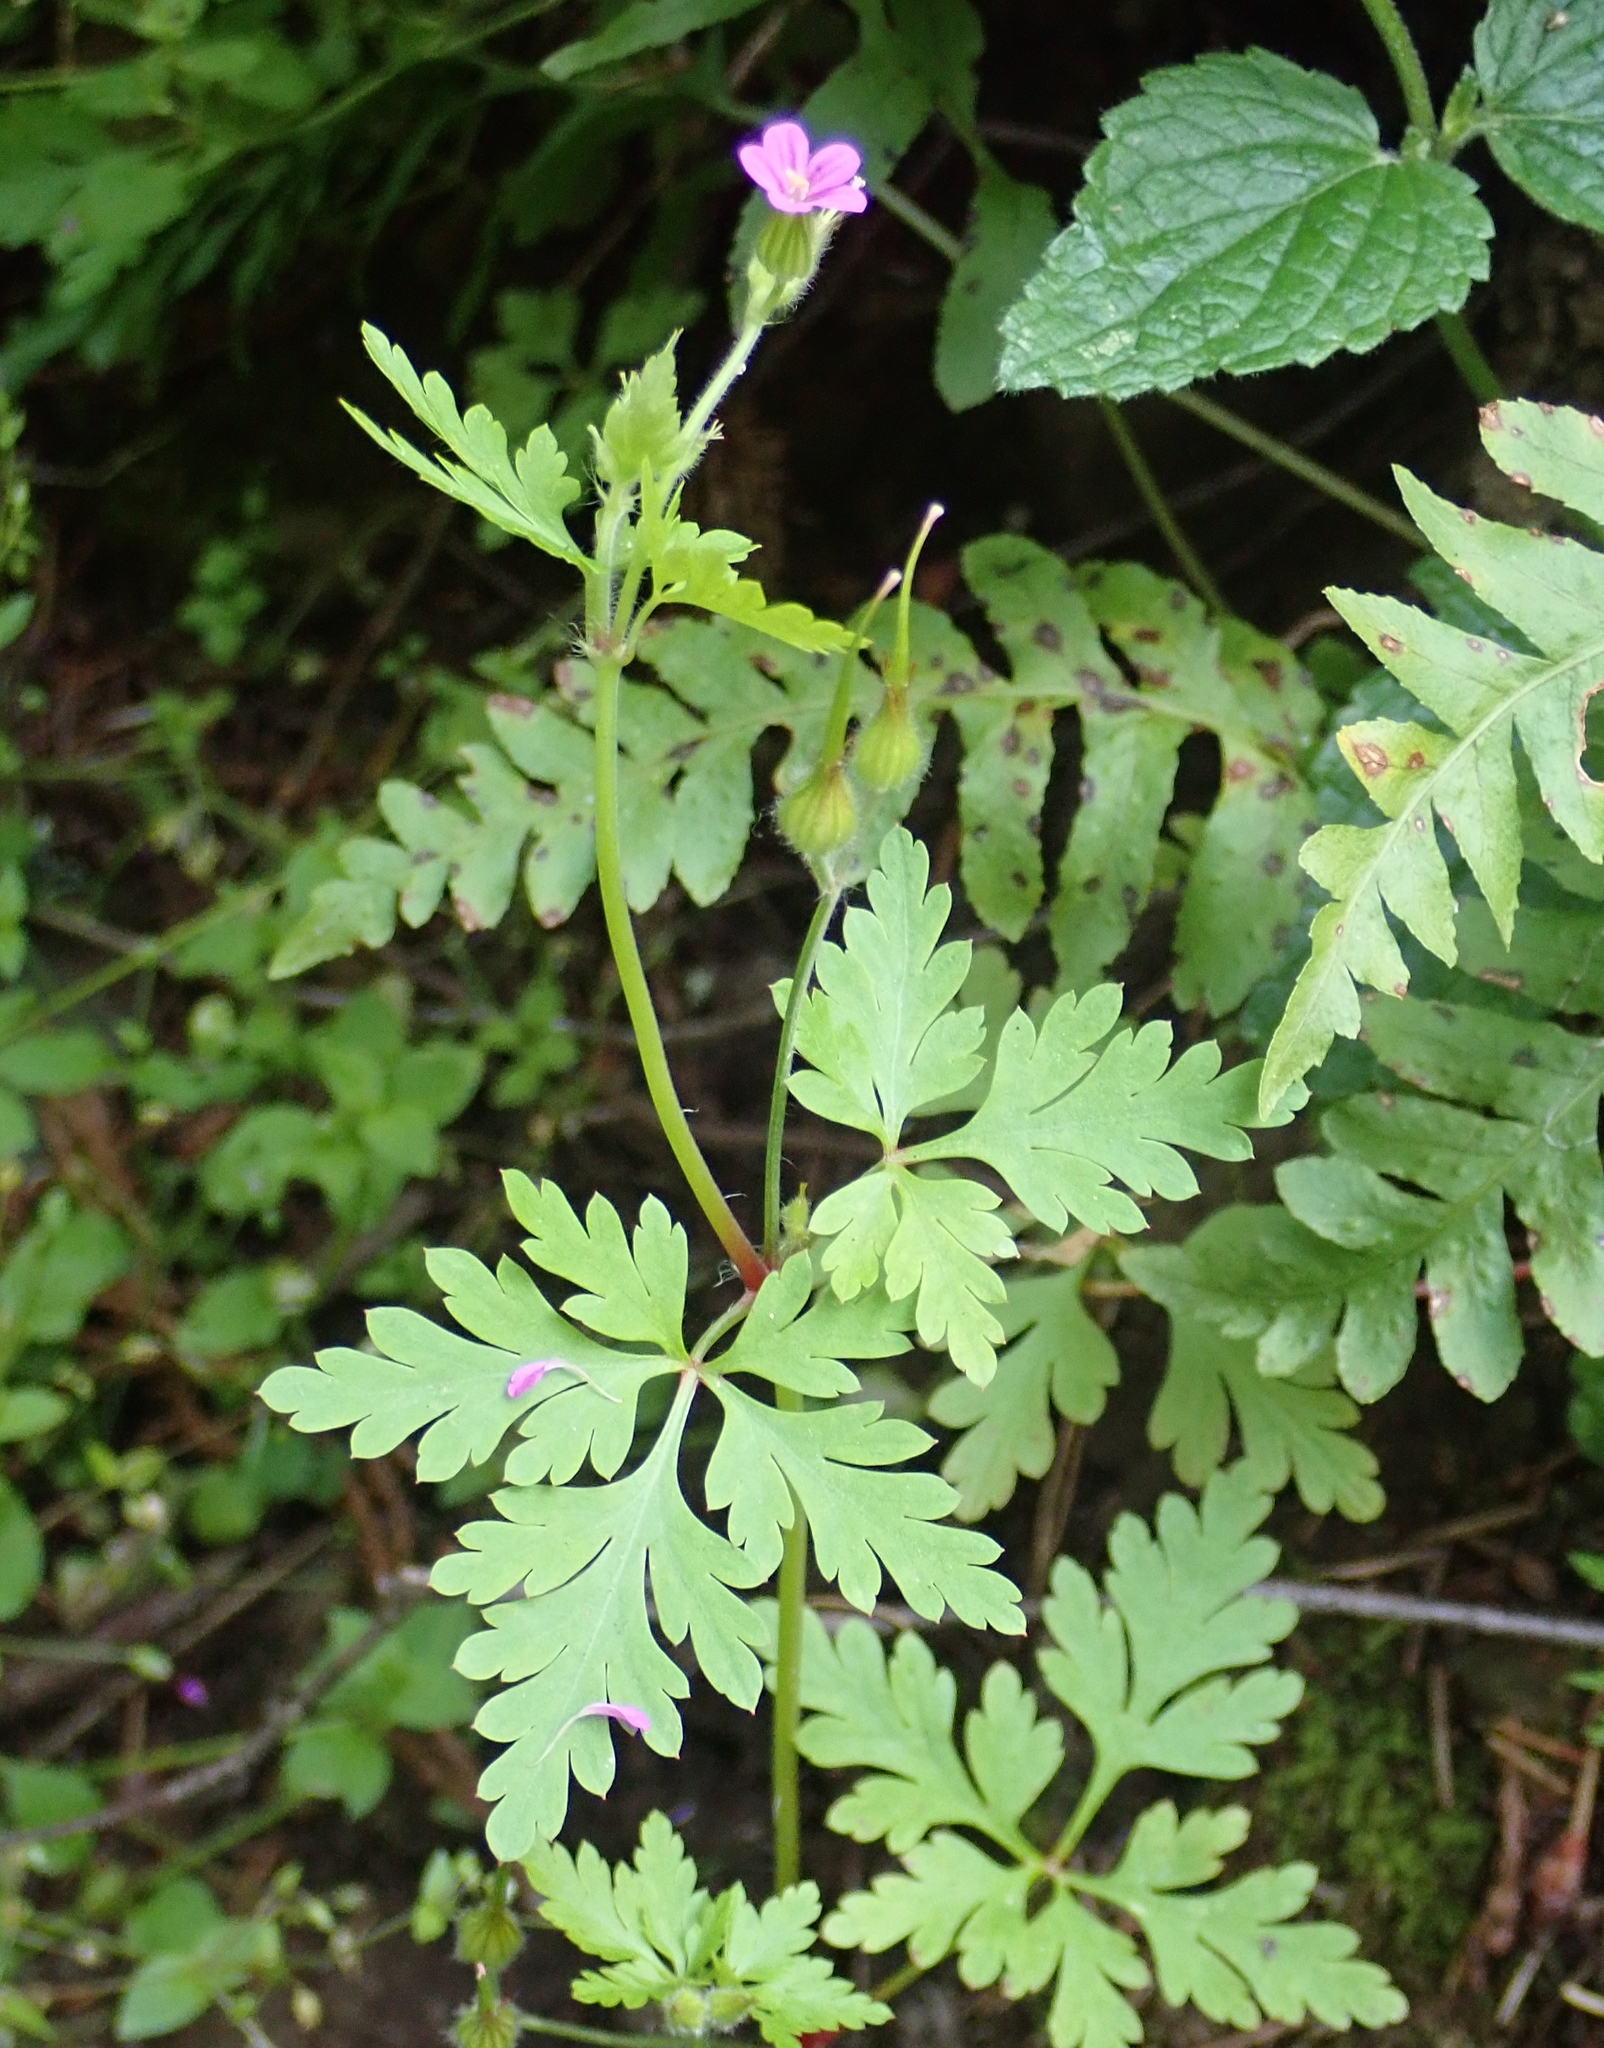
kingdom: Plantae
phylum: Tracheophyta
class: Magnoliopsida
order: Geraniales
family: Geraniaceae
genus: Geranium
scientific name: Geranium purpureum
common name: Little-robin
